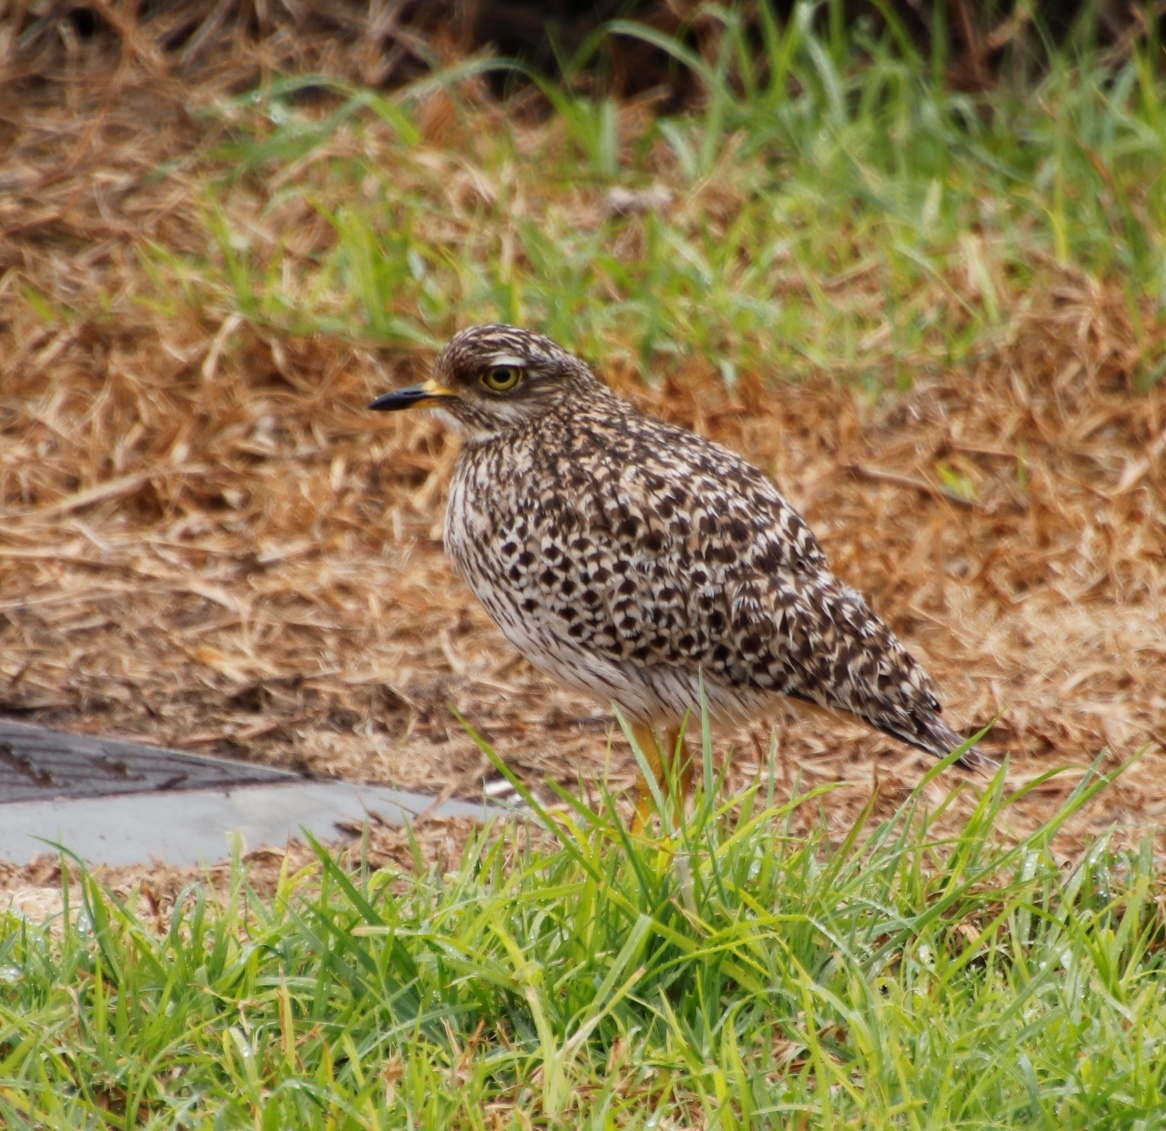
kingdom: Animalia
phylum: Chordata
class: Aves
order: Charadriiformes
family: Burhinidae
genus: Burhinus
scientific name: Burhinus capensis
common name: Spotted thick-knee
